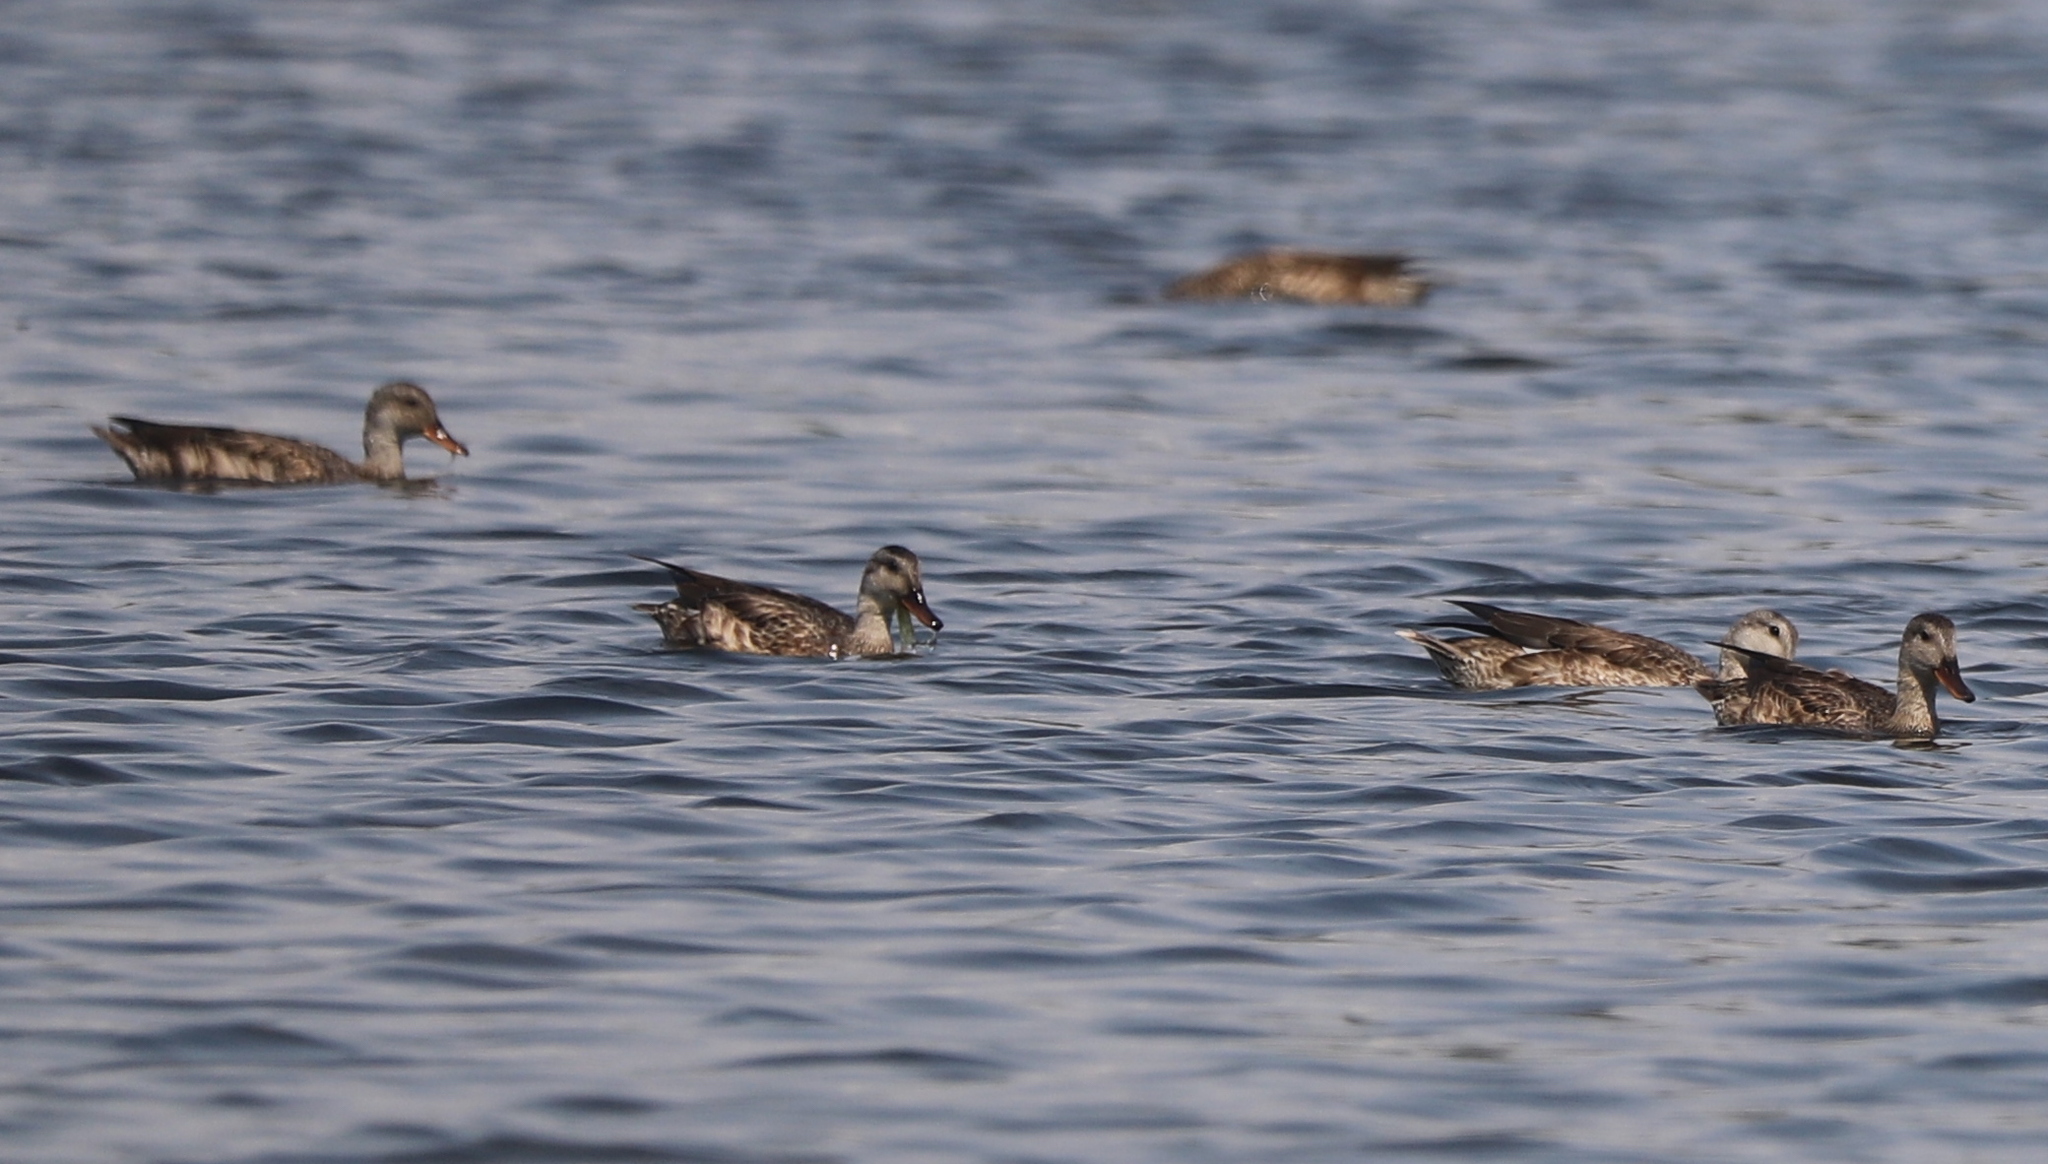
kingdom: Animalia
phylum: Chordata
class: Aves
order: Anseriformes
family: Anatidae
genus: Anas
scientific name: Anas platyrhynchos
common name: Mallard
